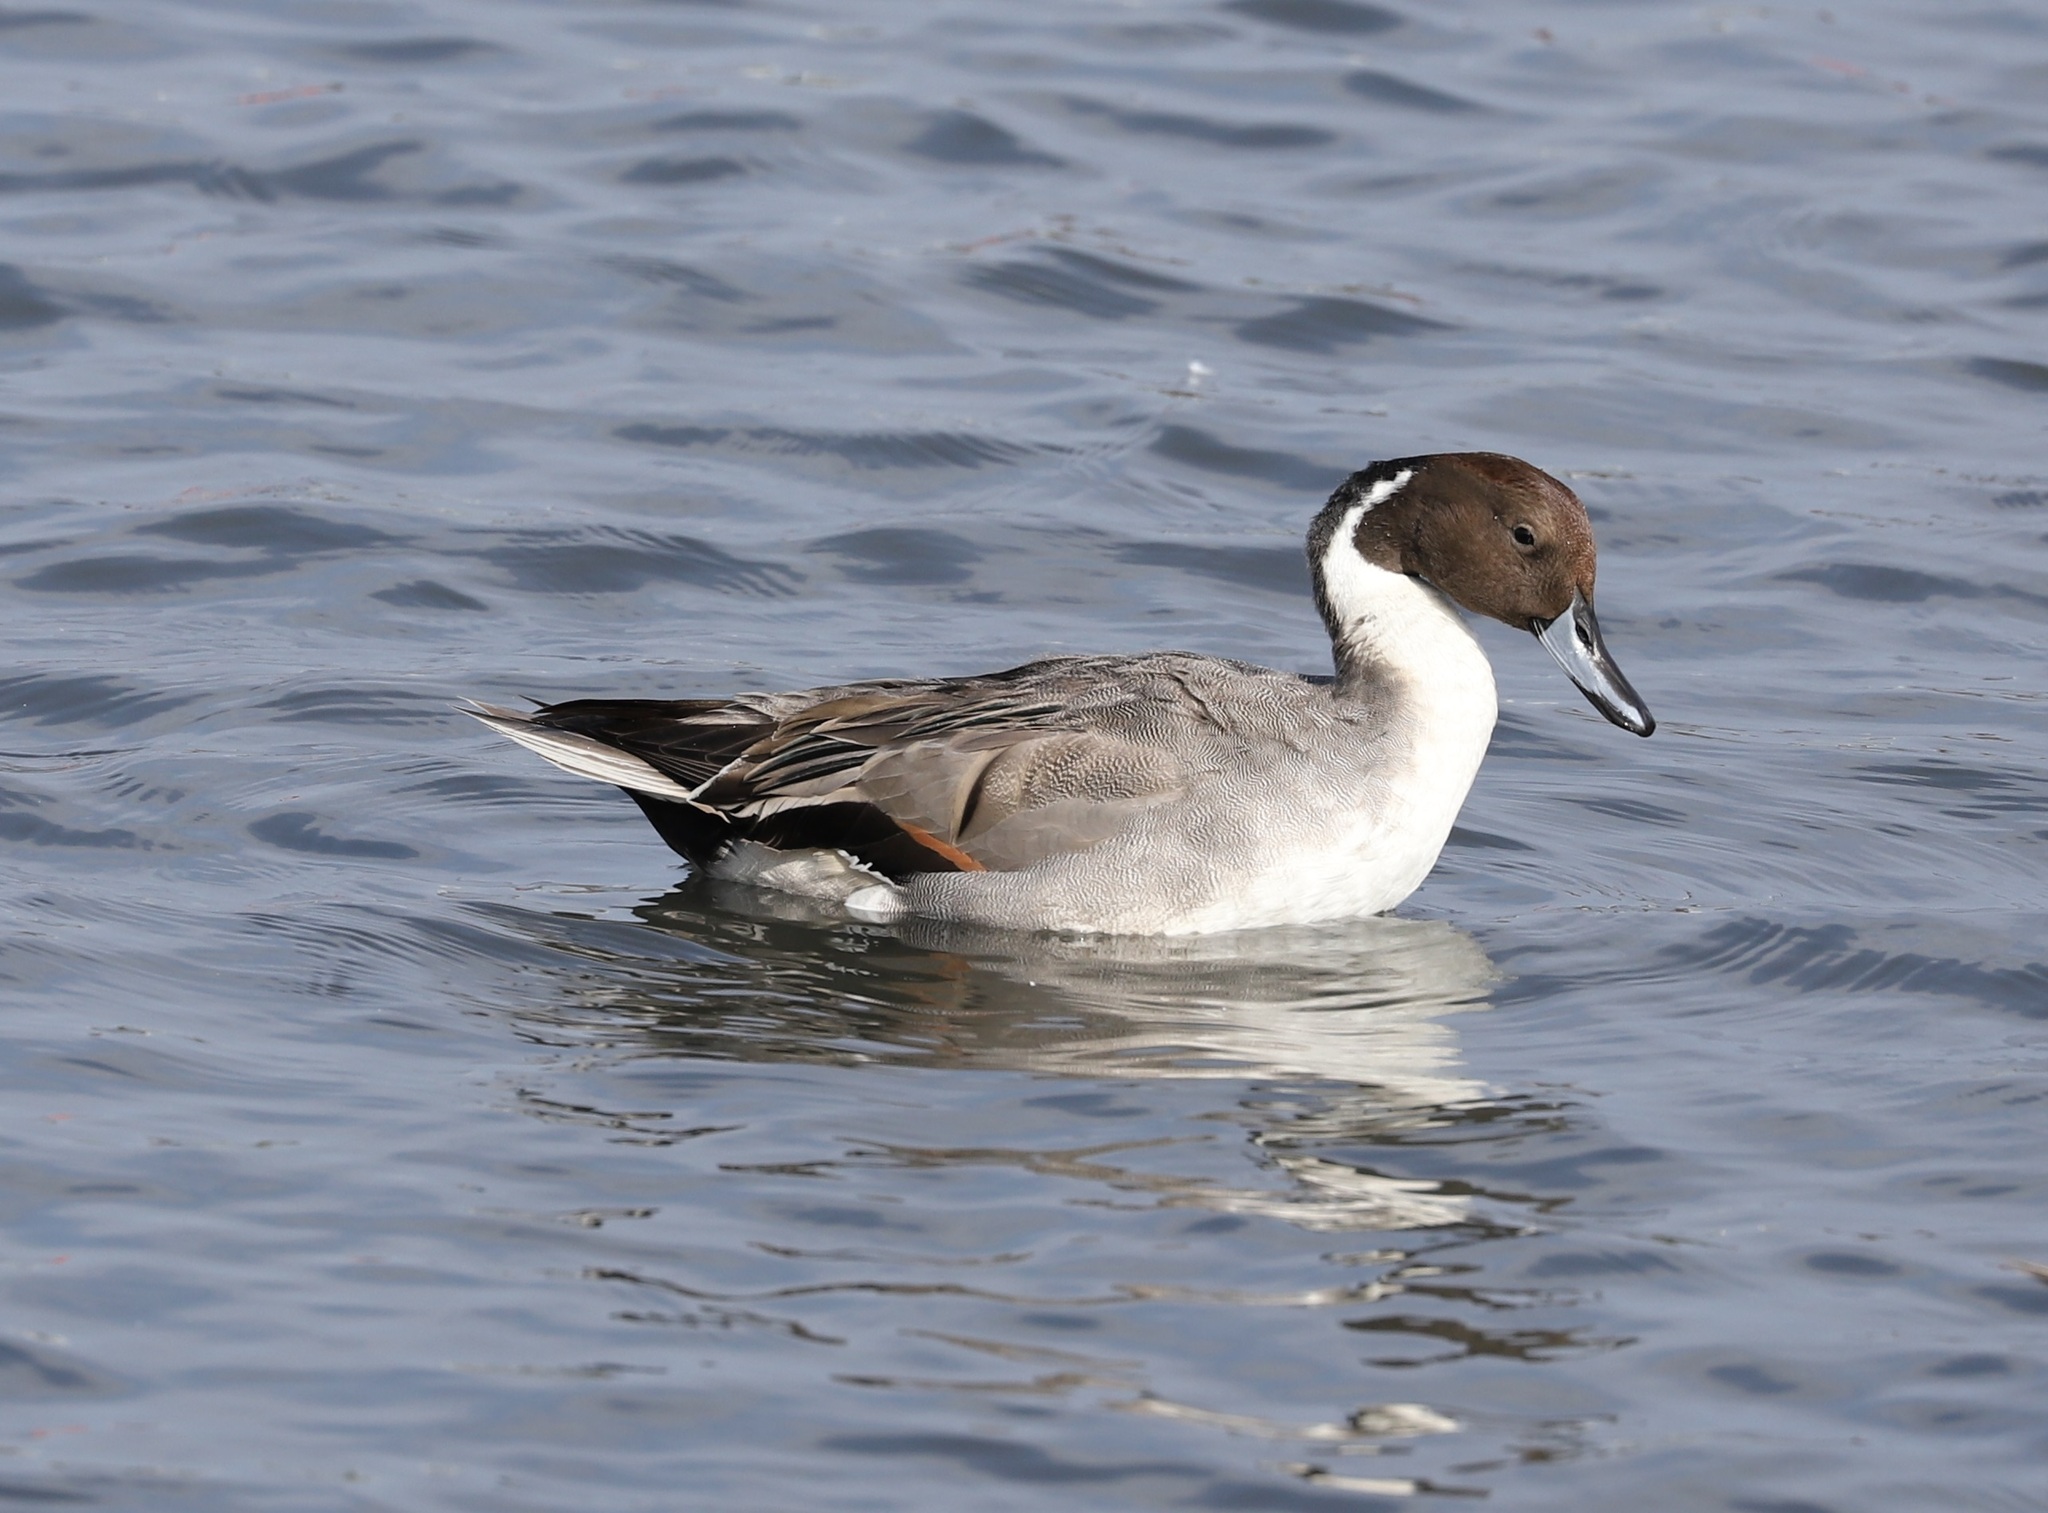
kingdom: Animalia
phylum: Chordata
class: Aves
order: Anseriformes
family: Anatidae
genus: Anas
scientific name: Anas acuta
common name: Northern pintail
